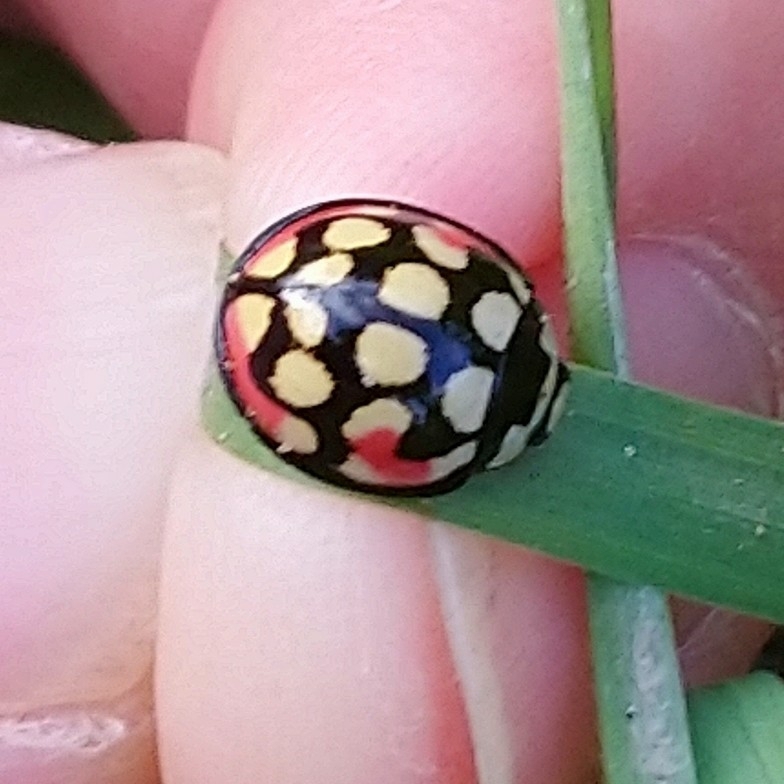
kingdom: Animalia
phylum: Arthropoda
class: Insecta
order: Coleoptera
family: Coccinellidae
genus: Cheilomenes
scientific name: Cheilomenes sulphurea
